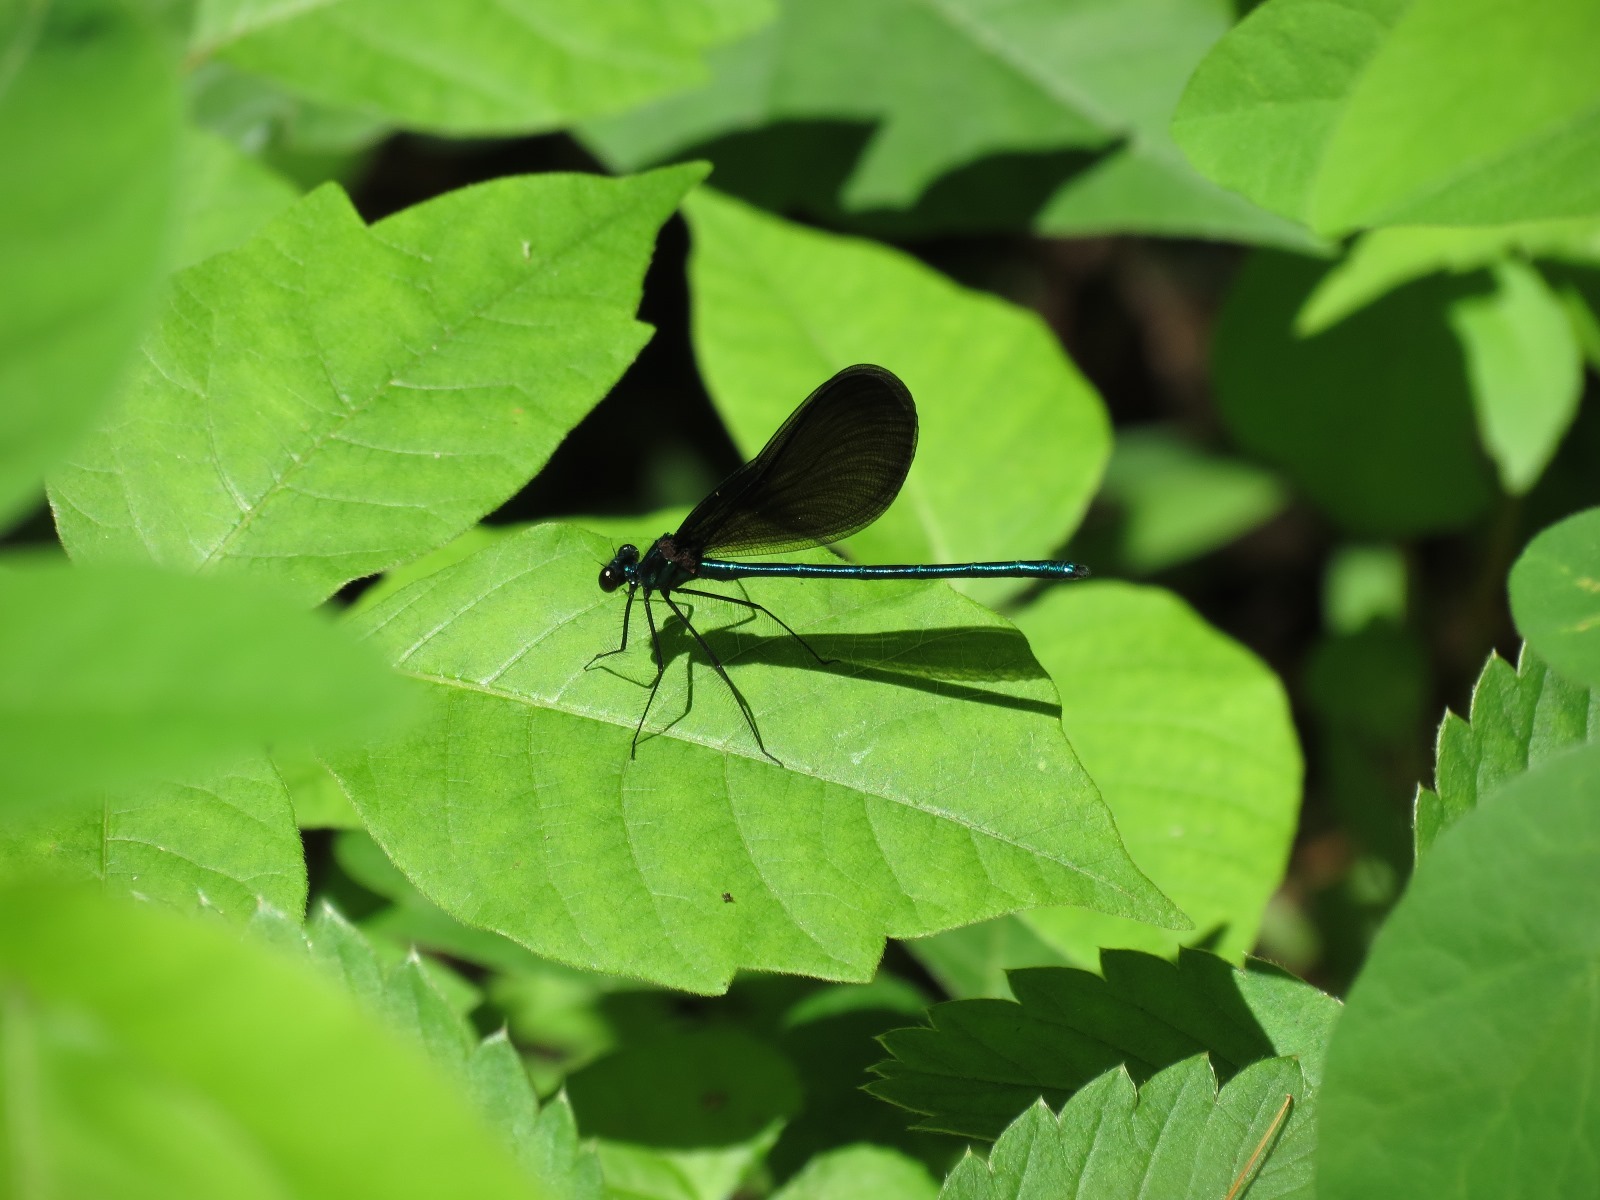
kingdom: Animalia
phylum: Arthropoda
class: Insecta
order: Odonata
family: Calopterygidae
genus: Calopteryx
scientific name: Calopteryx maculata
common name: Ebony jewelwing
